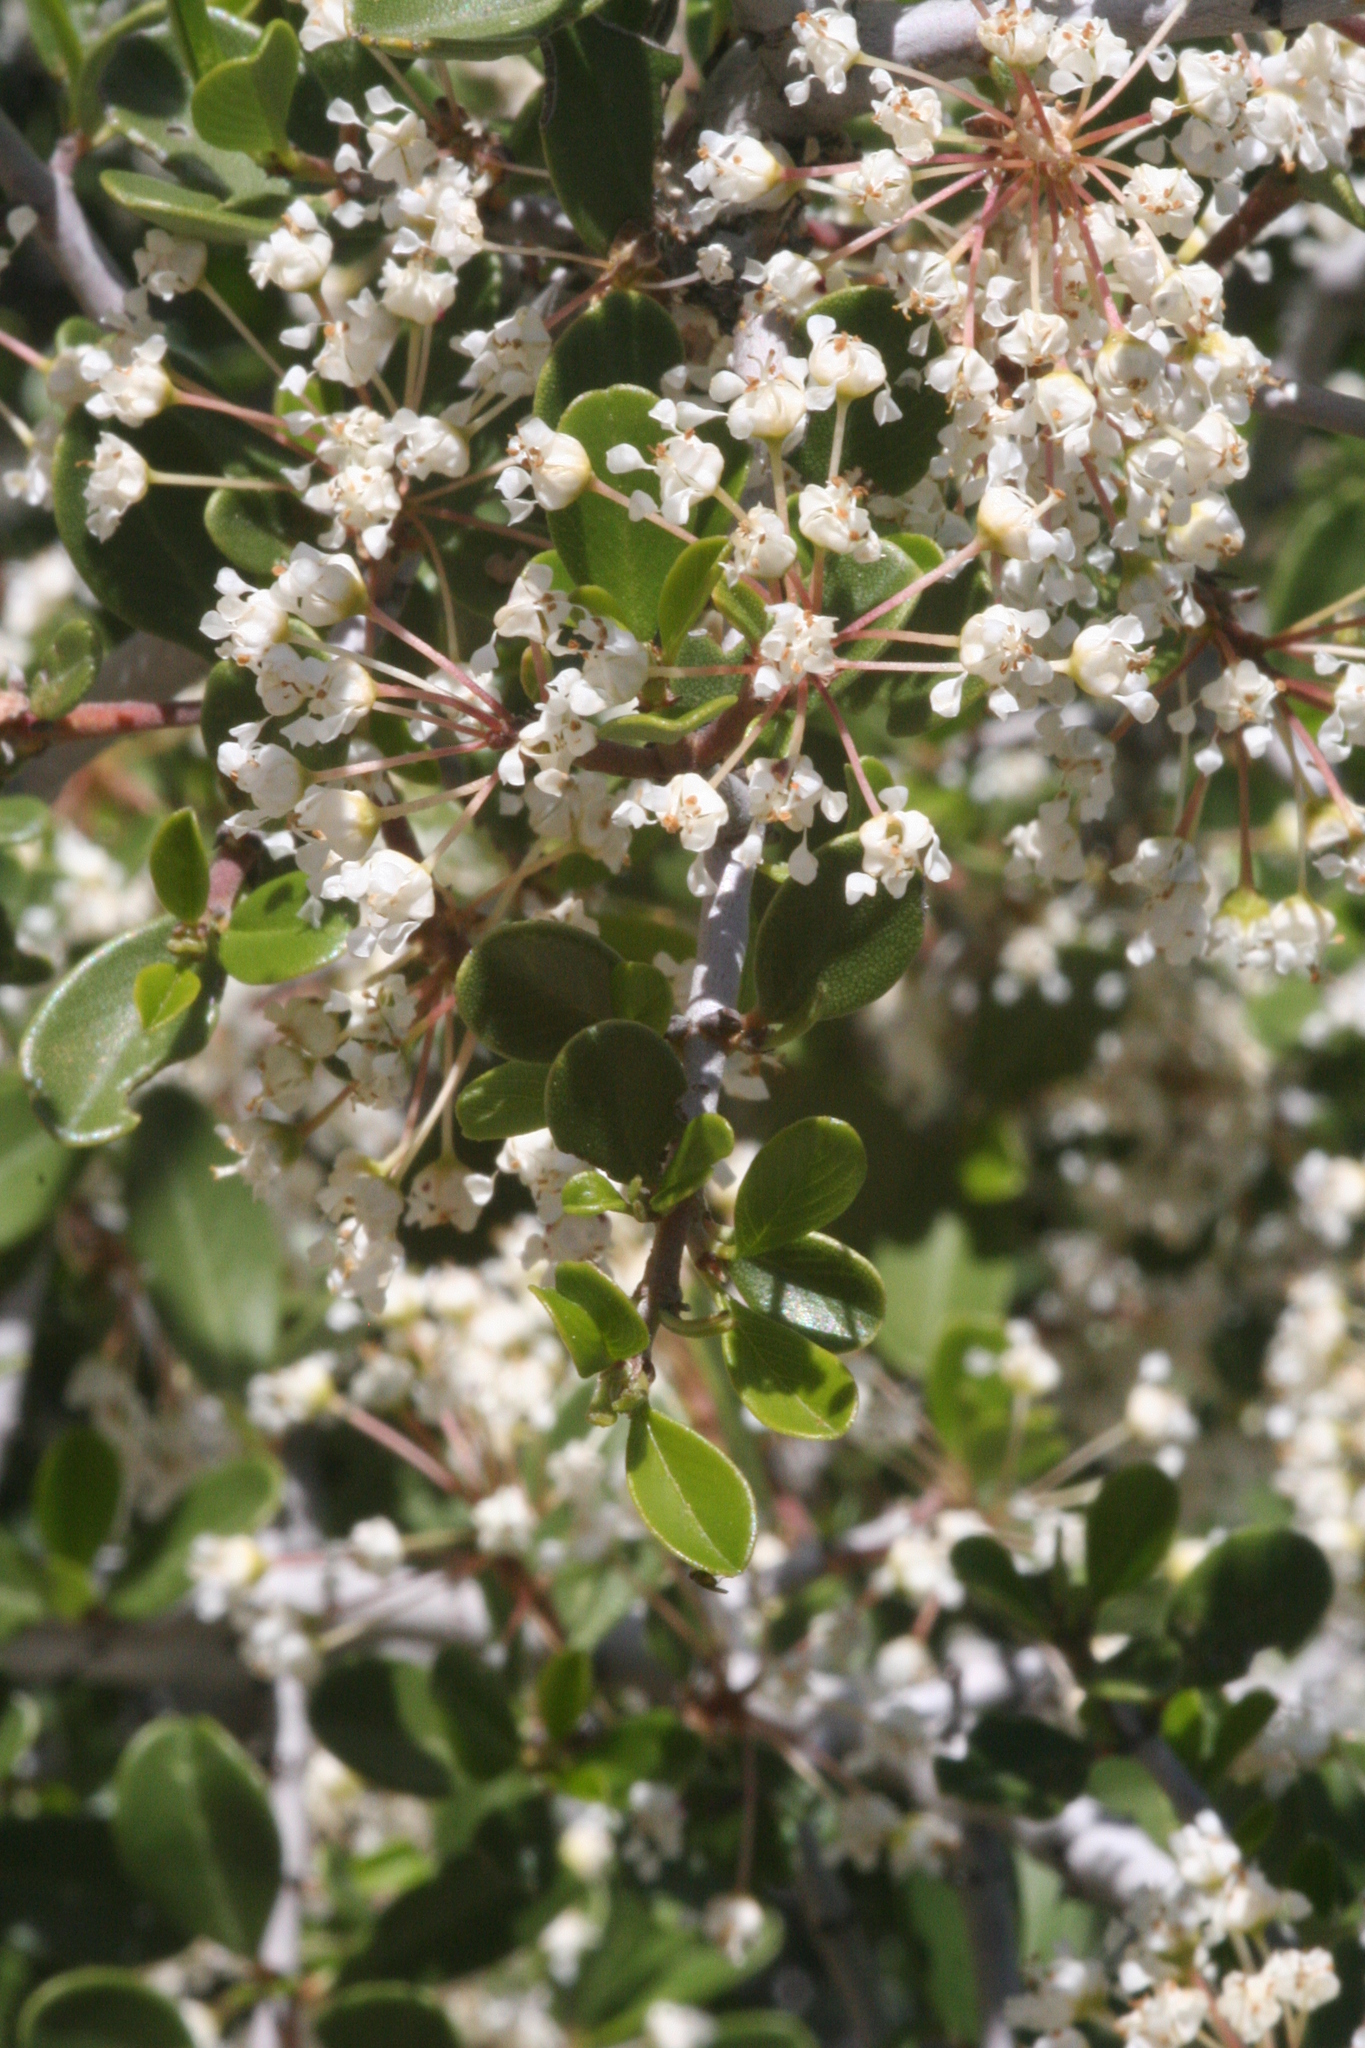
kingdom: Plantae
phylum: Tracheophyta
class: Magnoliopsida
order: Rosales
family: Rhamnaceae
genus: Ceanothus
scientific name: Ceanothus cuneatus
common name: Cuneate ceanothus
